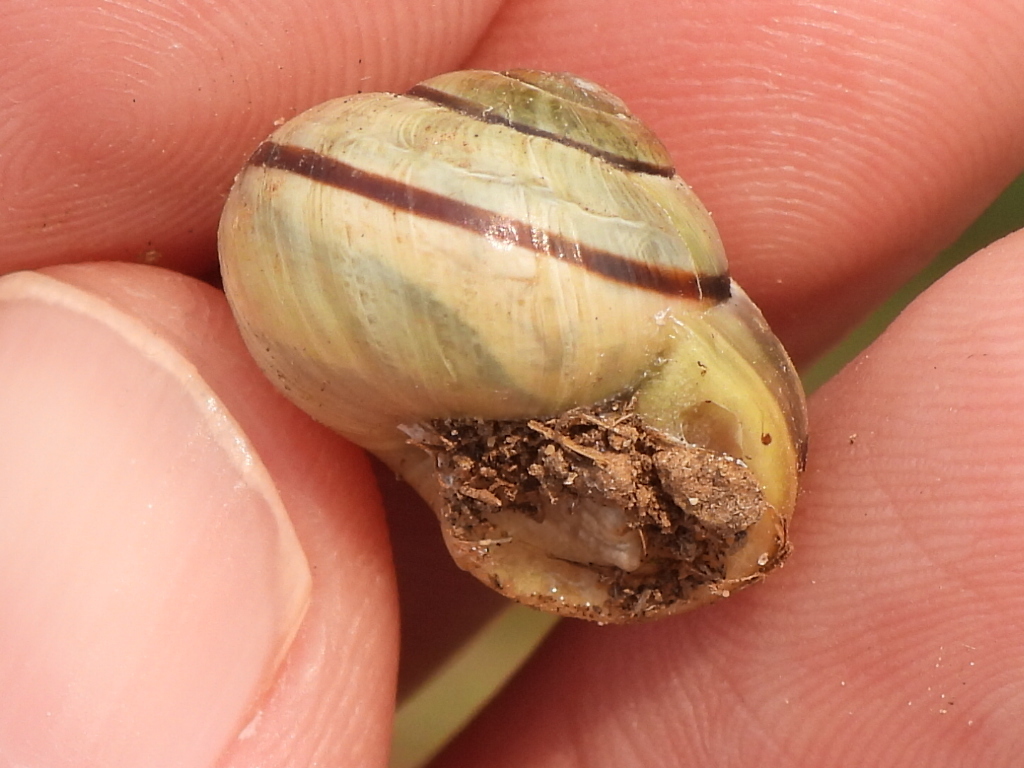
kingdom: Animalia
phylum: Mollusca
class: Gastropoda
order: Stylommatophora
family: Helicidae
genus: Cepaea
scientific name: Cepaea nemoralis
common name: Grovesnail
